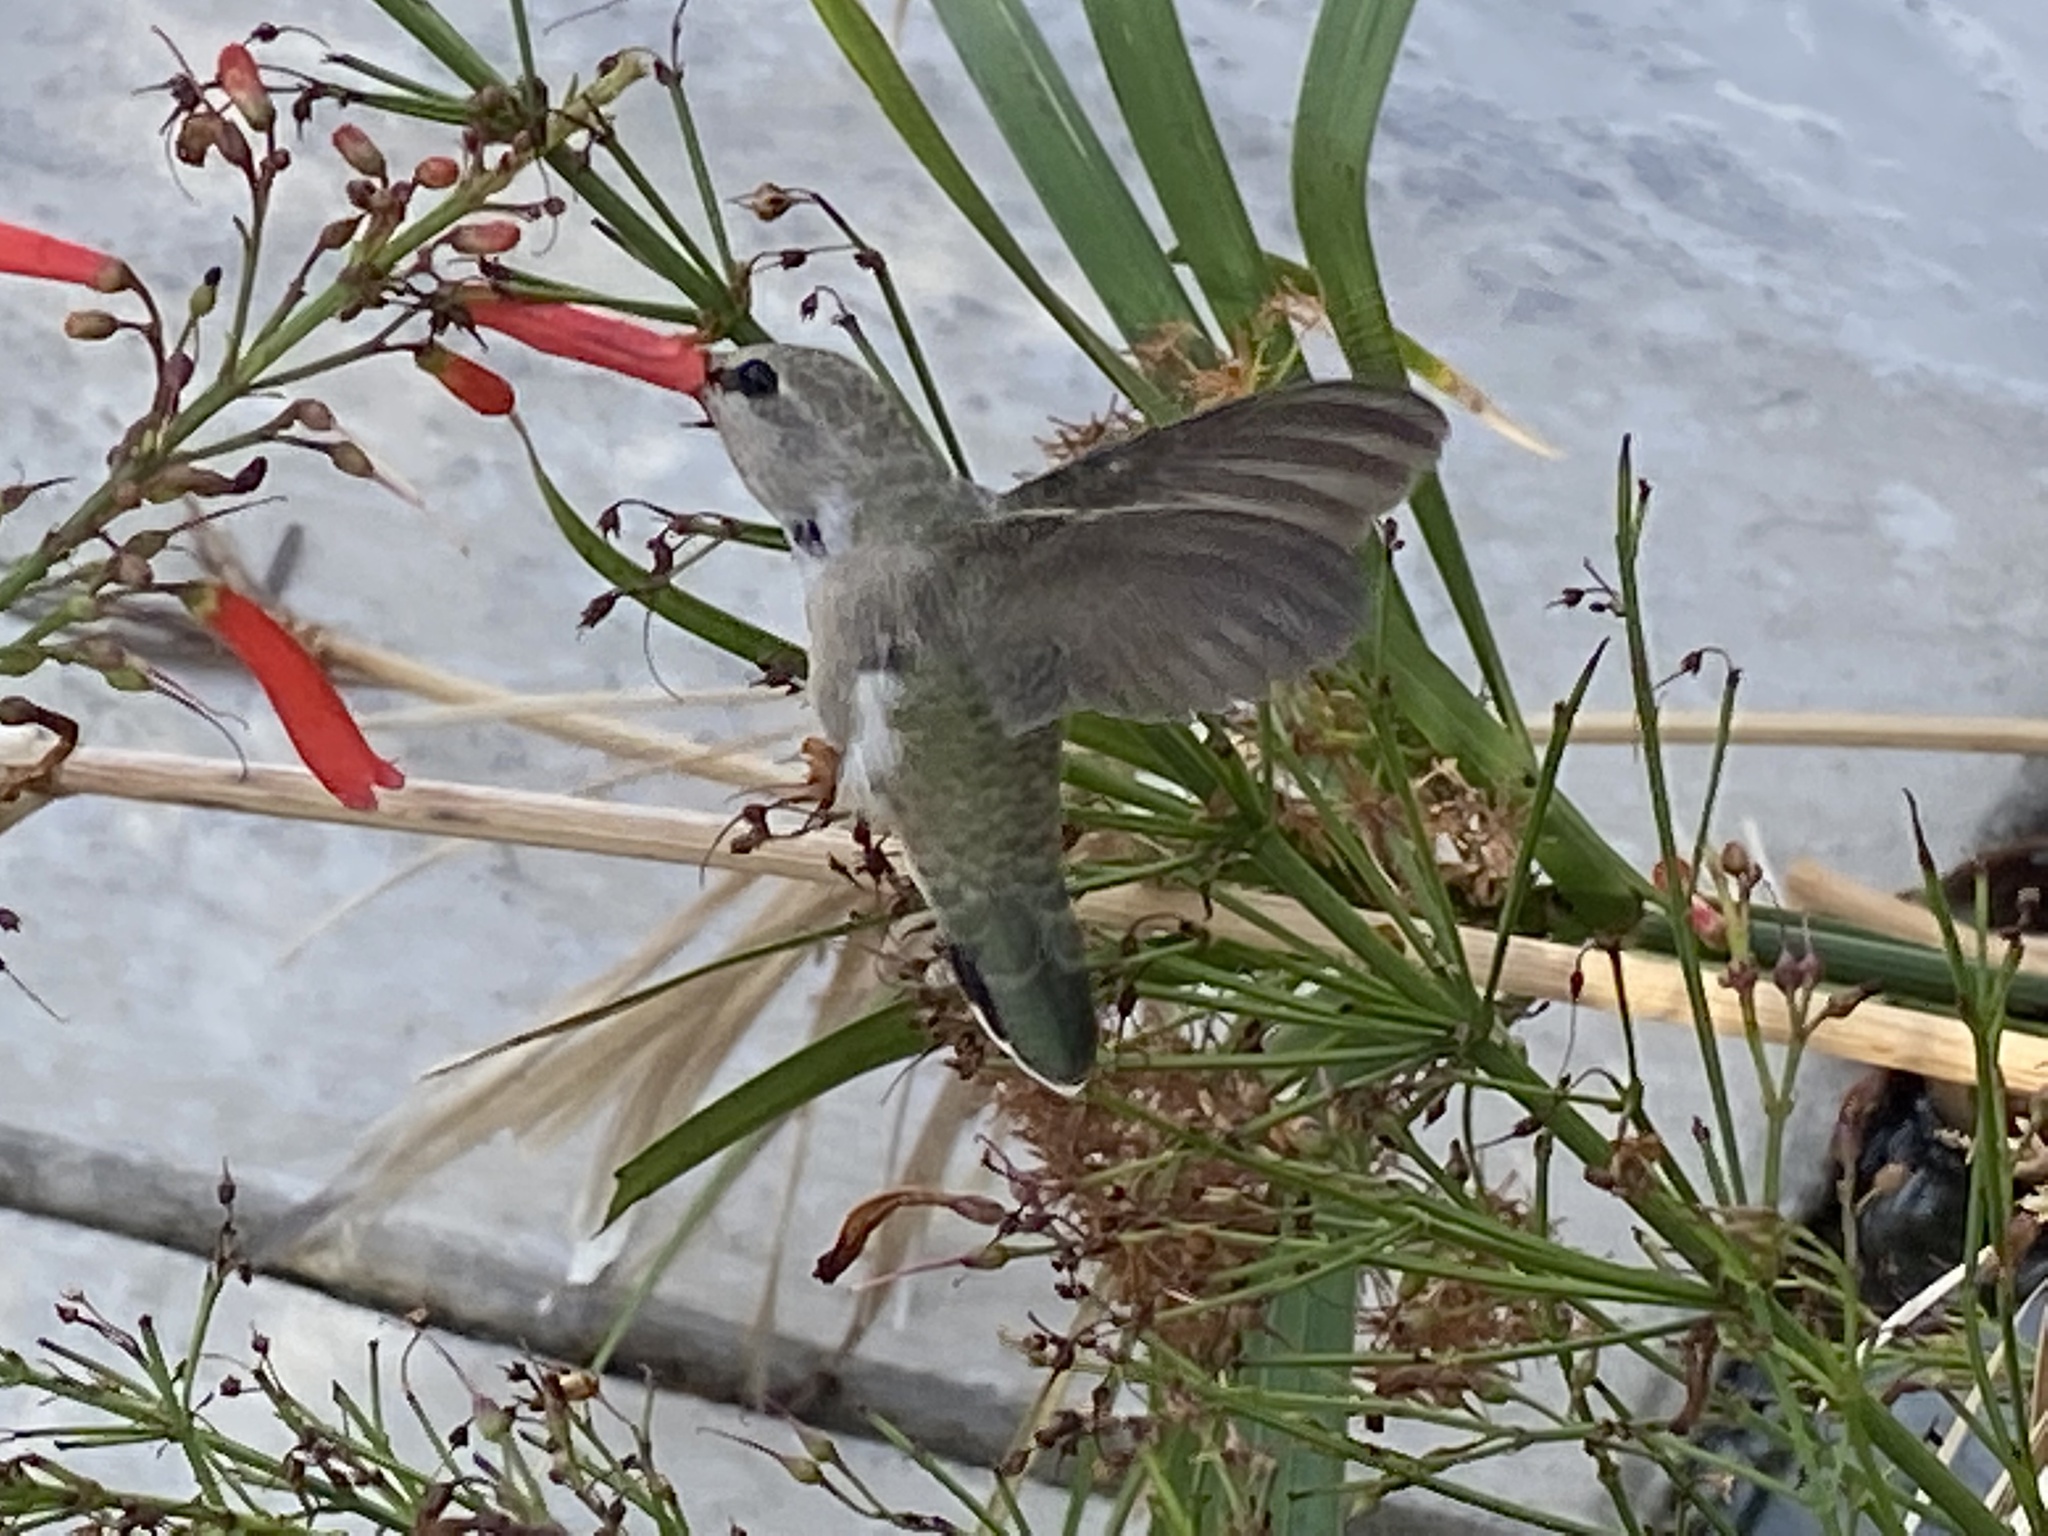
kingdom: Animalia
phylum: Chordata
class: Aves
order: Apodiformes
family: Trochilidae
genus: Calypte
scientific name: Calypte costae
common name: Costa's hummingbird
